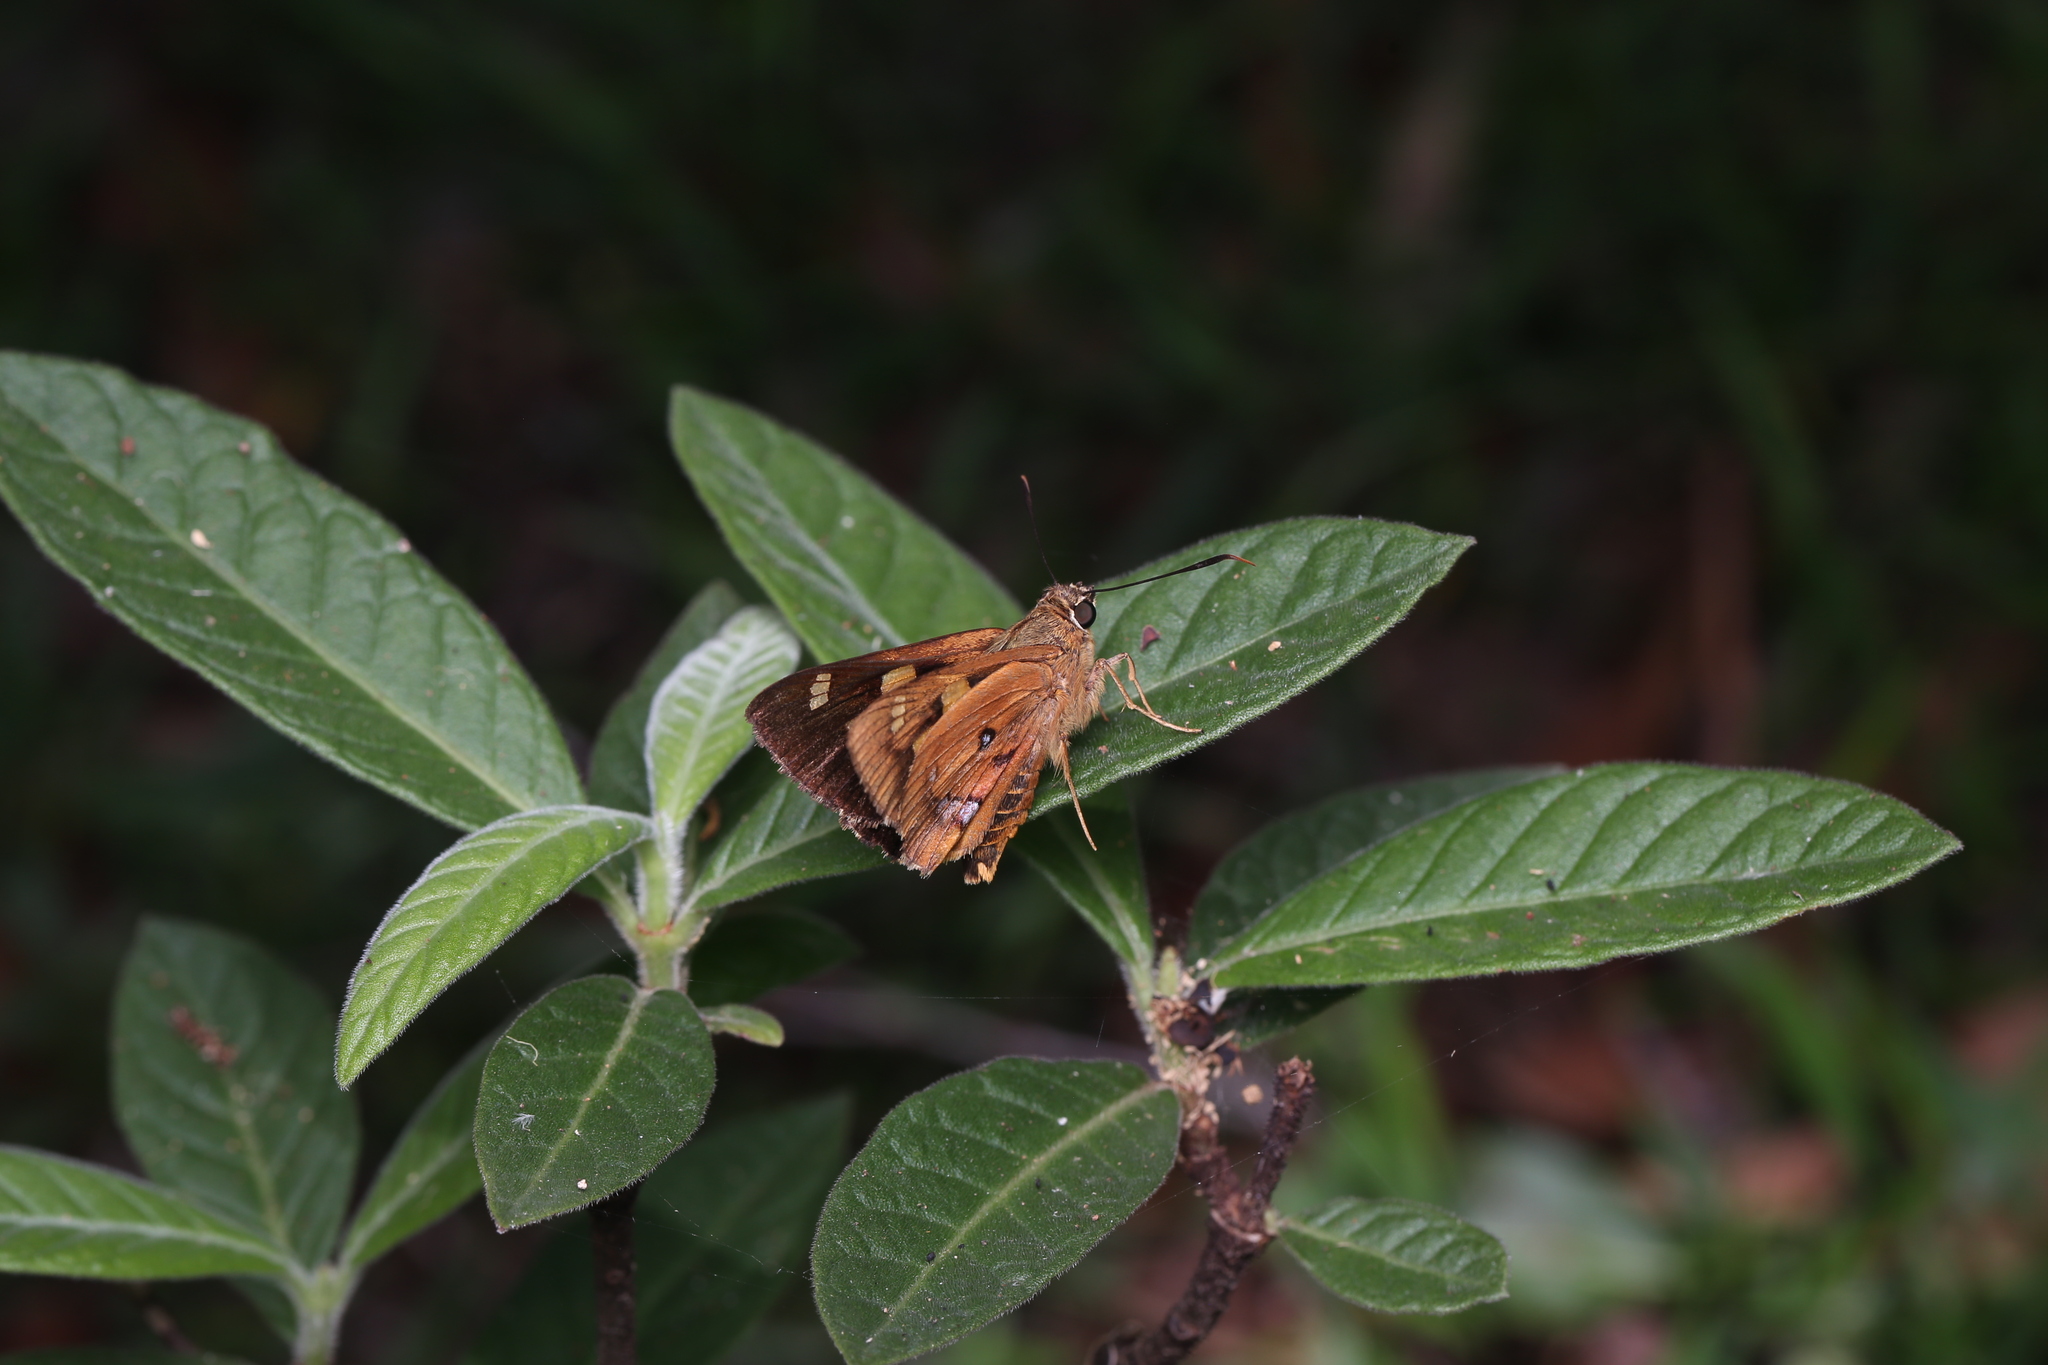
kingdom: Animalia
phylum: Arthropoda
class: Insecta
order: Lepidoptera
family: Hesperiidae
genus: Trapezites
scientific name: Trapezites symmomus
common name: Splendid ochre
